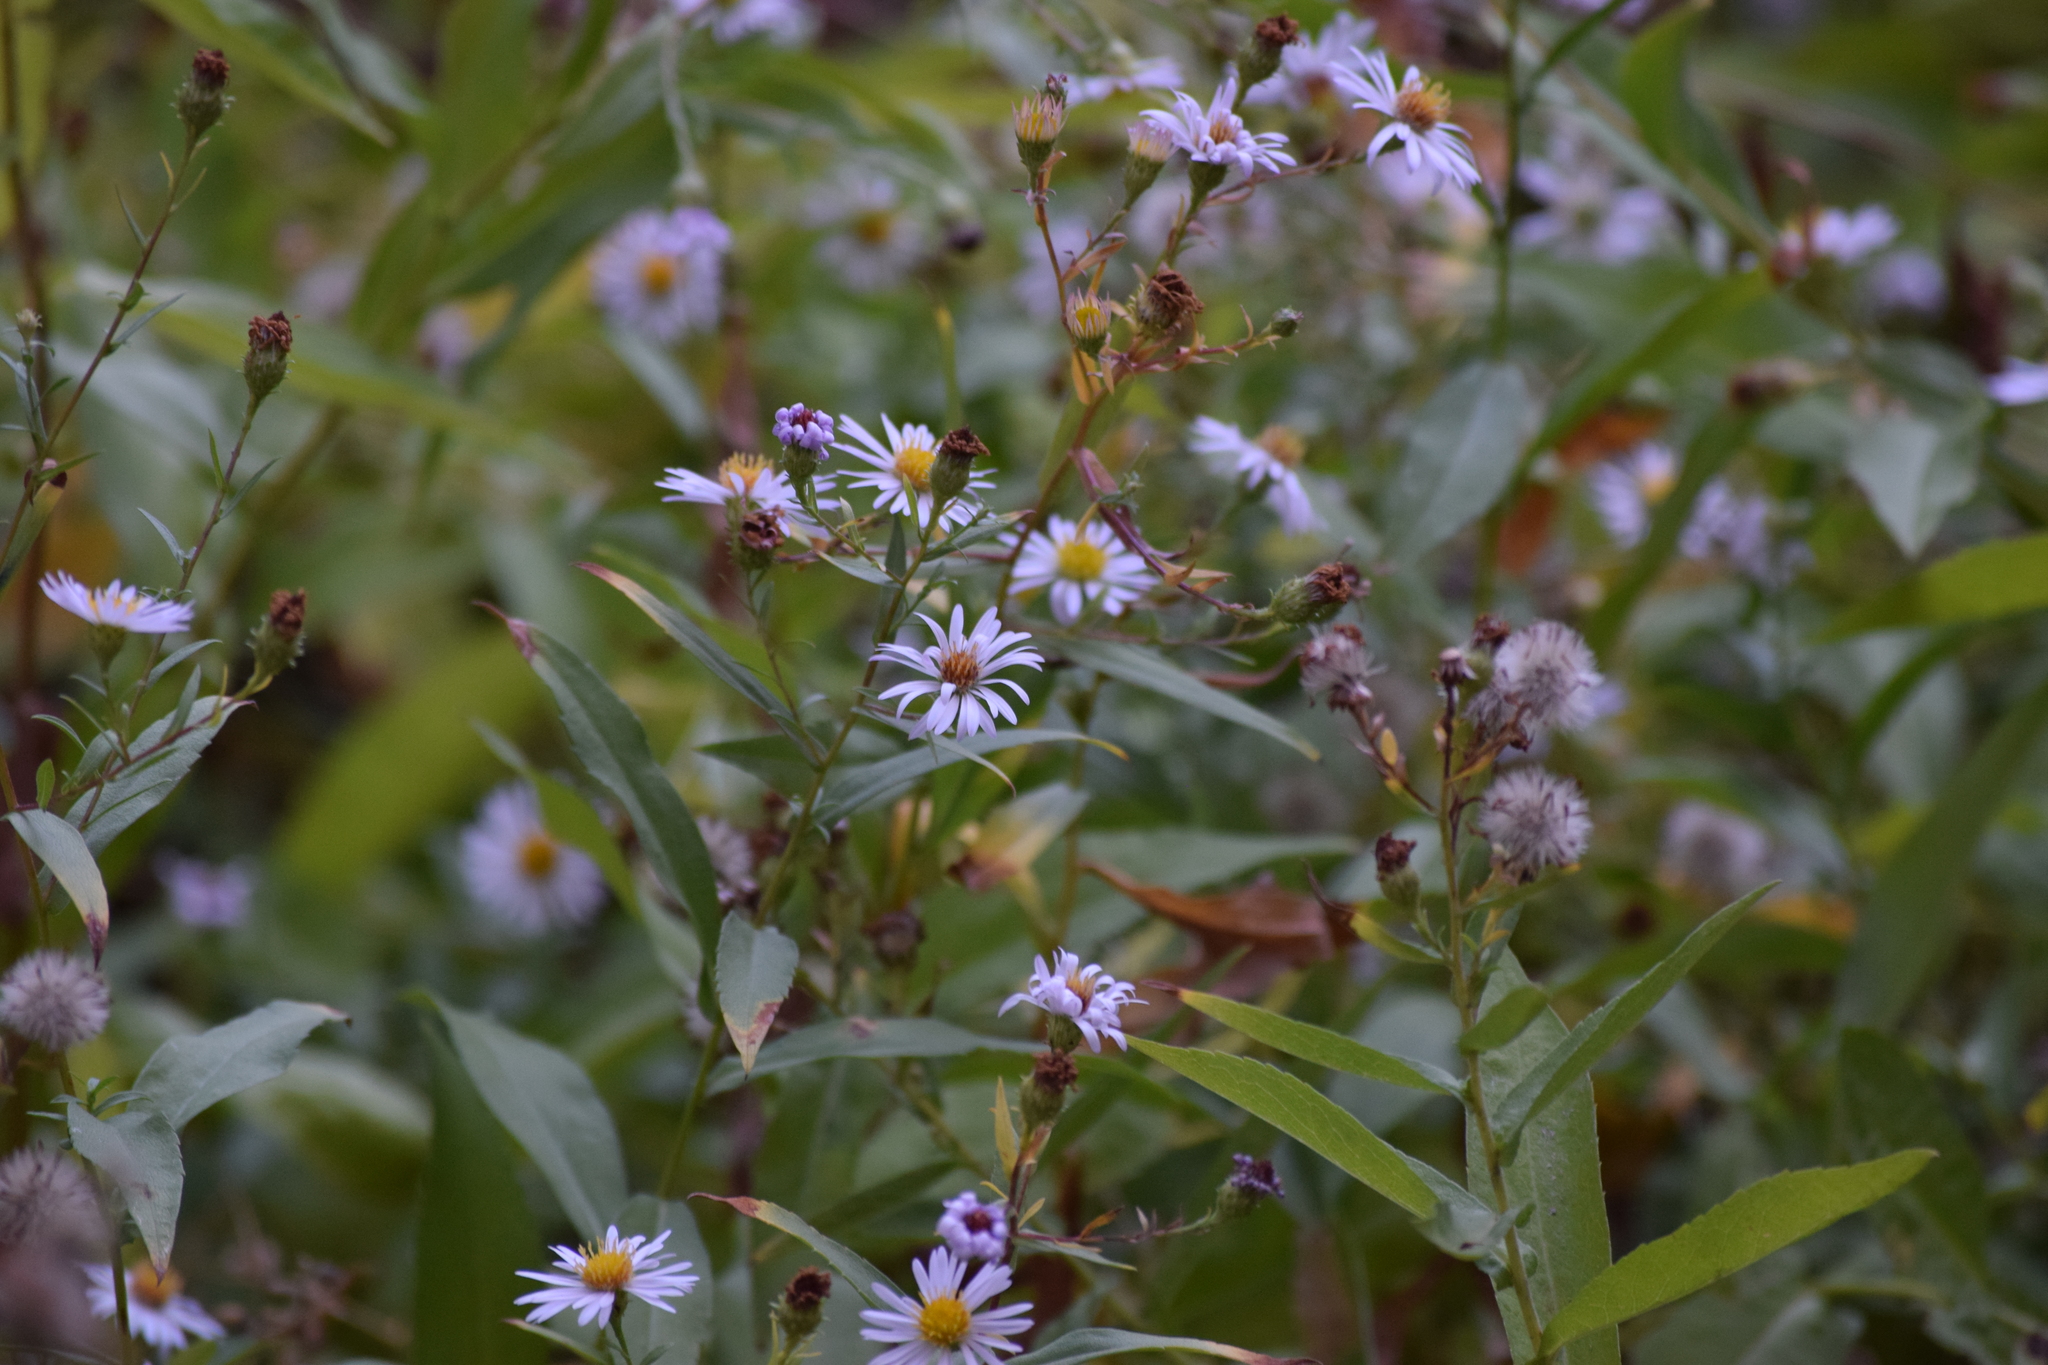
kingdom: Plantae
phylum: Tracheophyta
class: Magnoliopsida
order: Asterales
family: Asteraceae
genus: Symphyotrichum
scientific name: Symphyotrichum greatae
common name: Greata's aster
